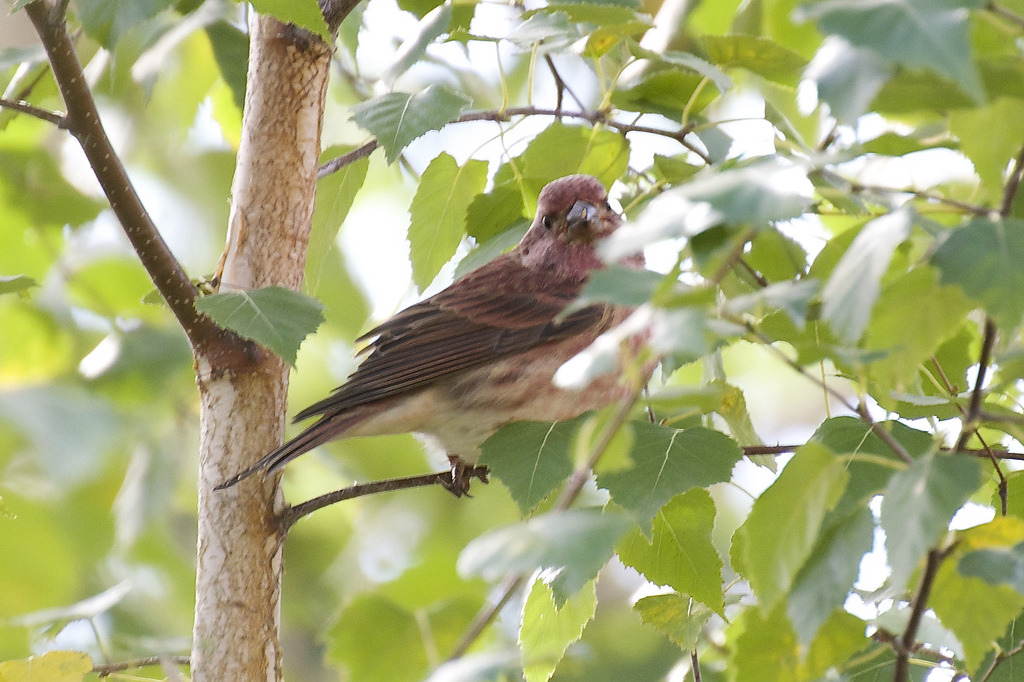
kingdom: Animalia
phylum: Chordata
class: Aves
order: Passeriformes
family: Fringillidae
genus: Haemorhous
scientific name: Haemorhous purpureus
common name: Purple finch
